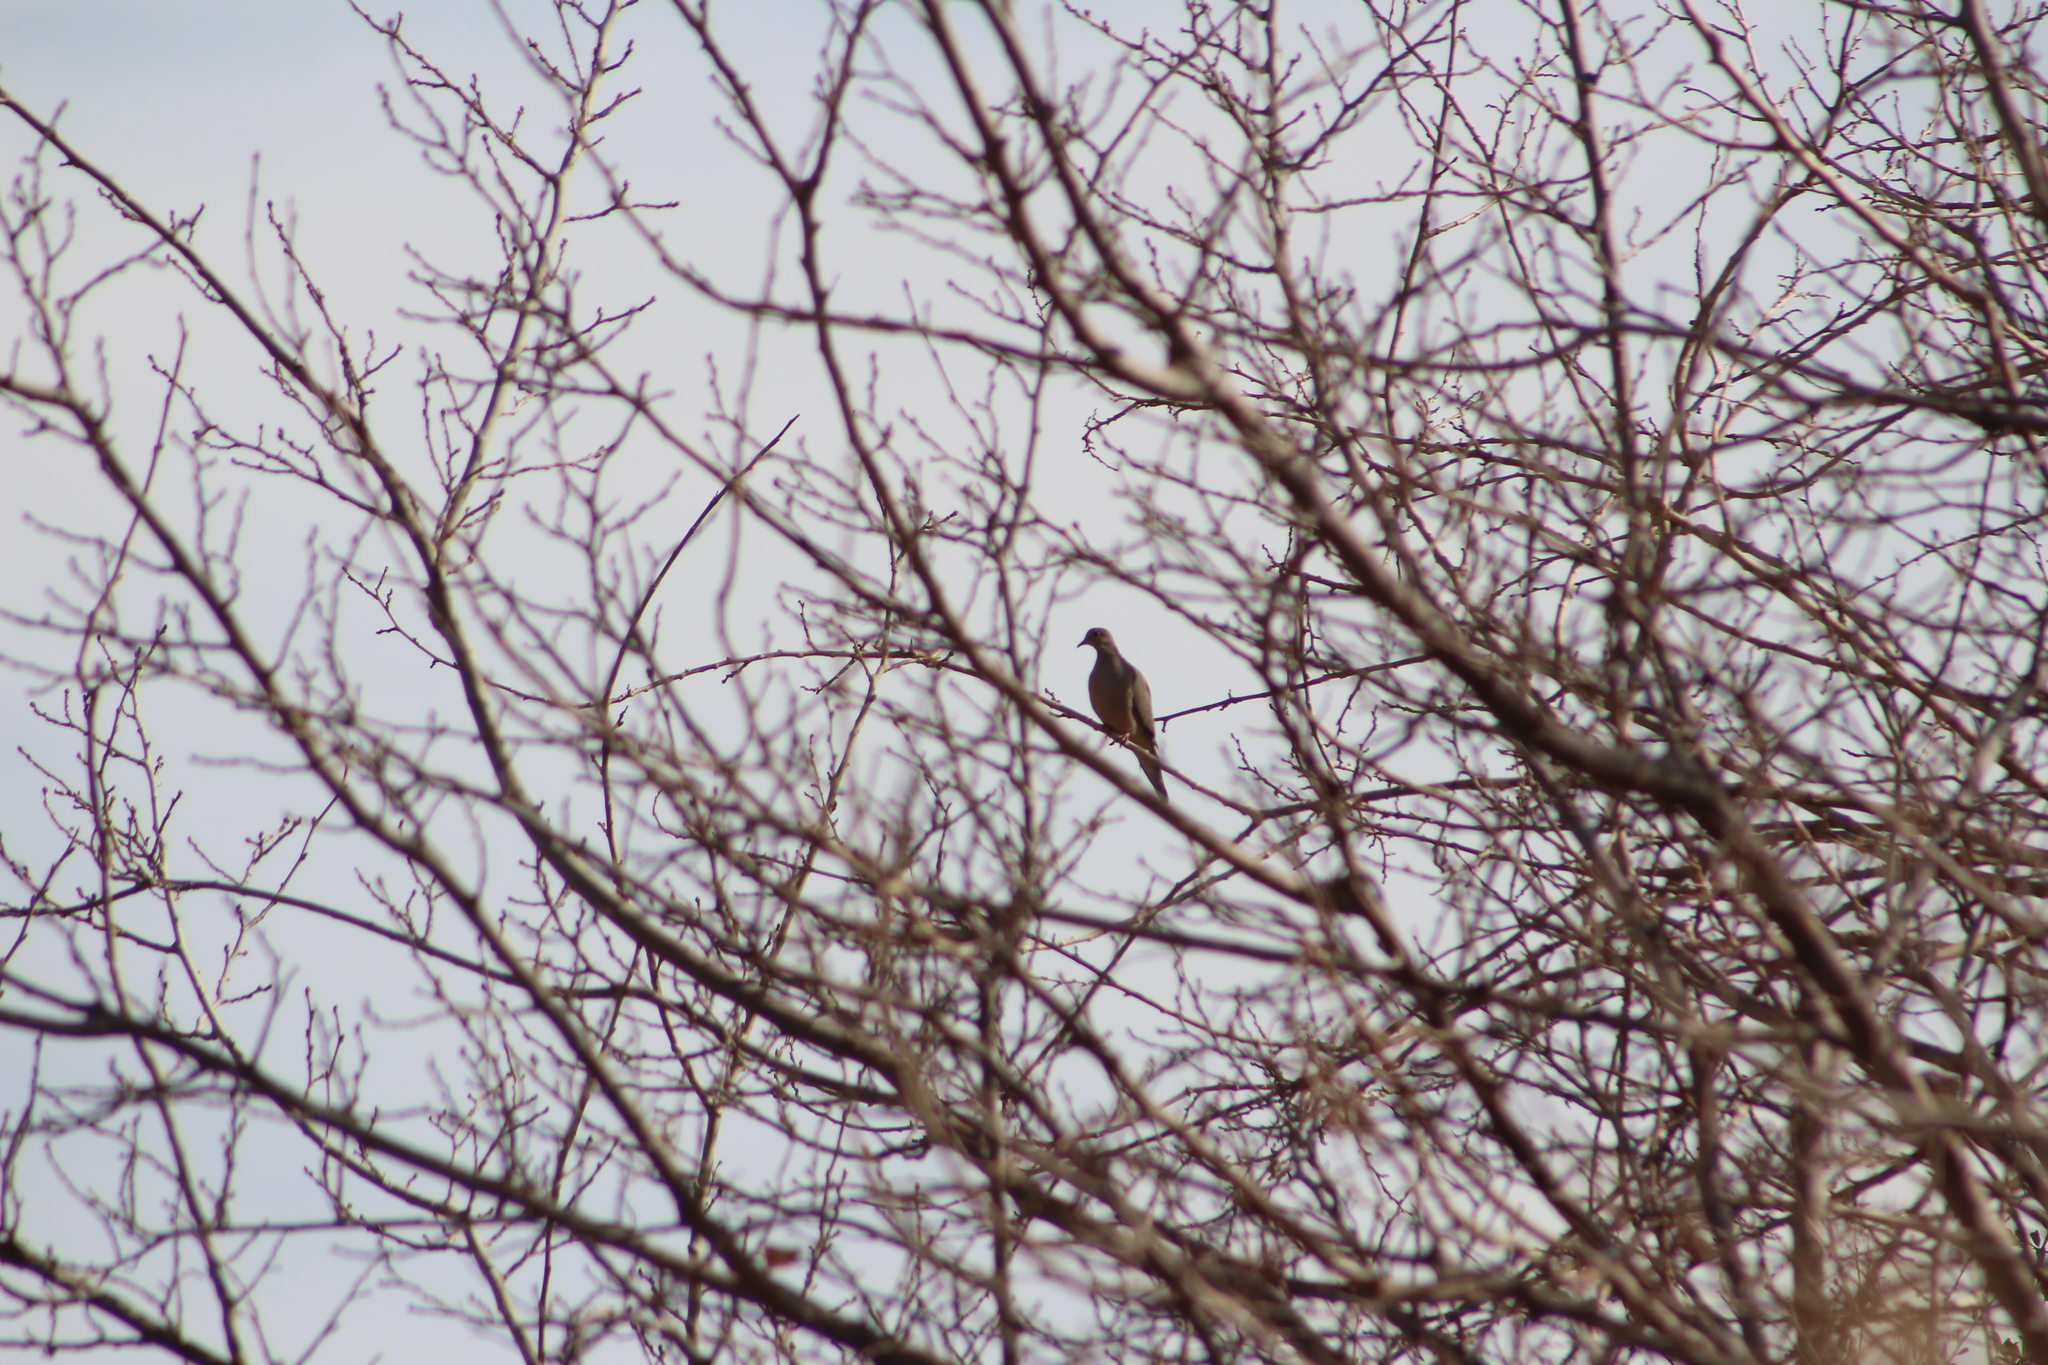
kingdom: Animalia
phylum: Chordata
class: Aves
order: Columbiformes
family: Columbidae
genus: Zenaida
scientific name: Zenaida macroura
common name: Mourning dove
